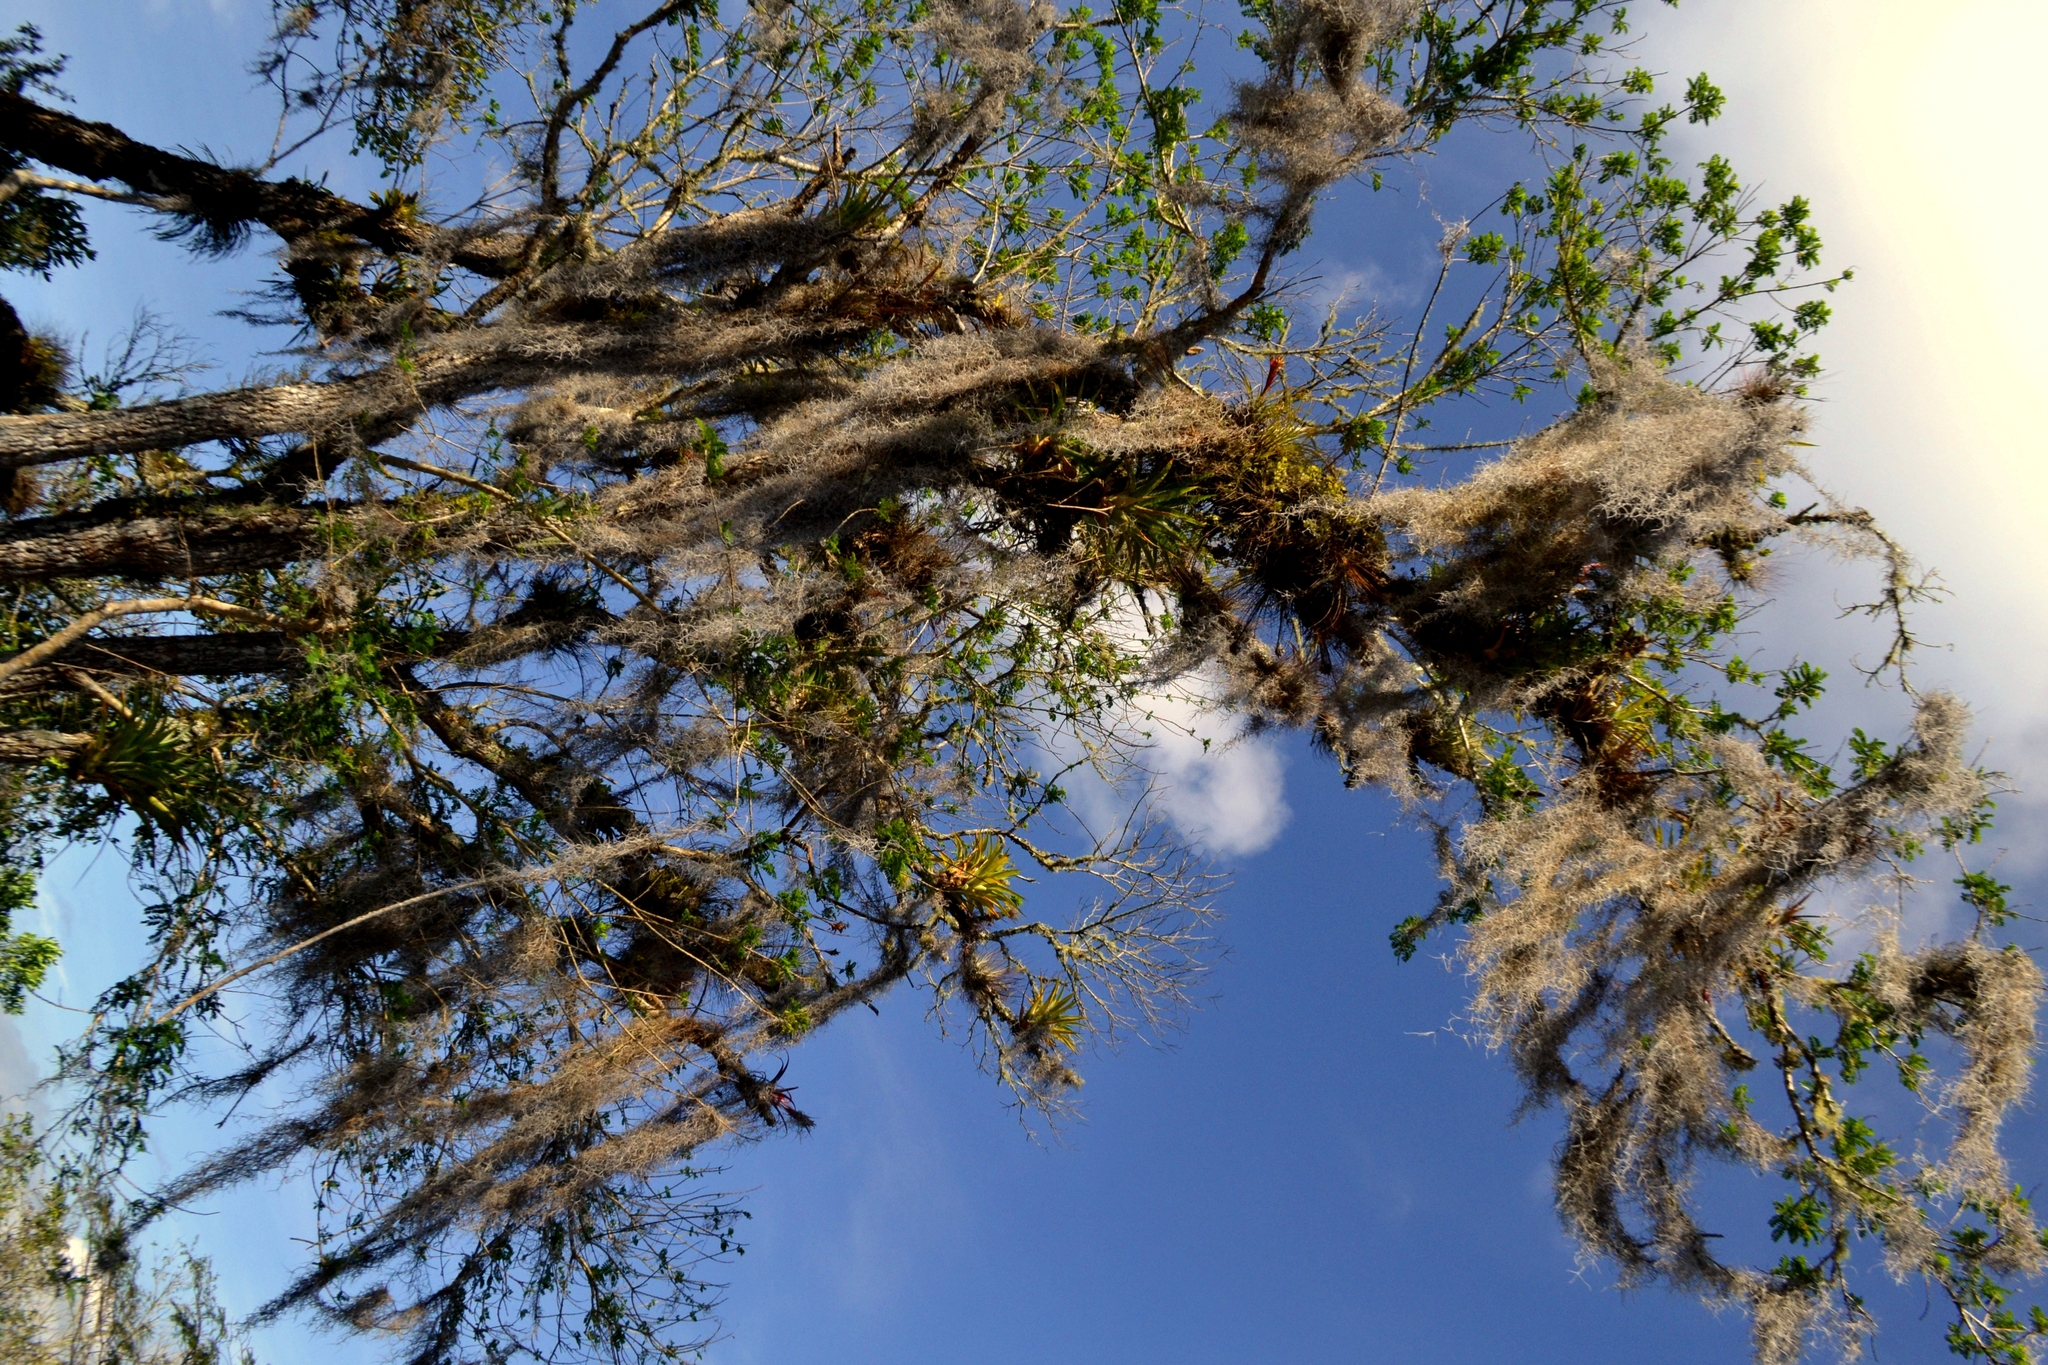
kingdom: Plantae
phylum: Tracheophyta
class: Liliopsida
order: Poales
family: Bromeliaceae
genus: Tillandsia
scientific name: Tillandsia usneoides
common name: Spanish moss
